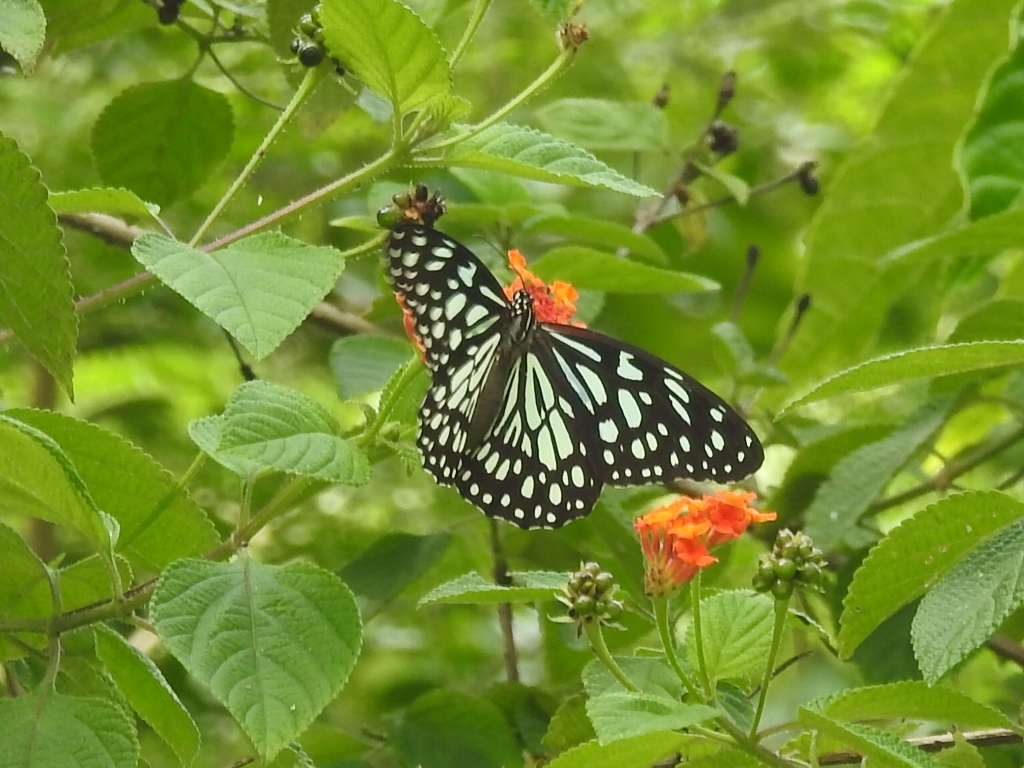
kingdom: Animalia
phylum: Arthropoda
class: Insecta
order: Lepidoptera
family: Nymphalidae
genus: Tirumala
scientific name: Tirumala limniace
